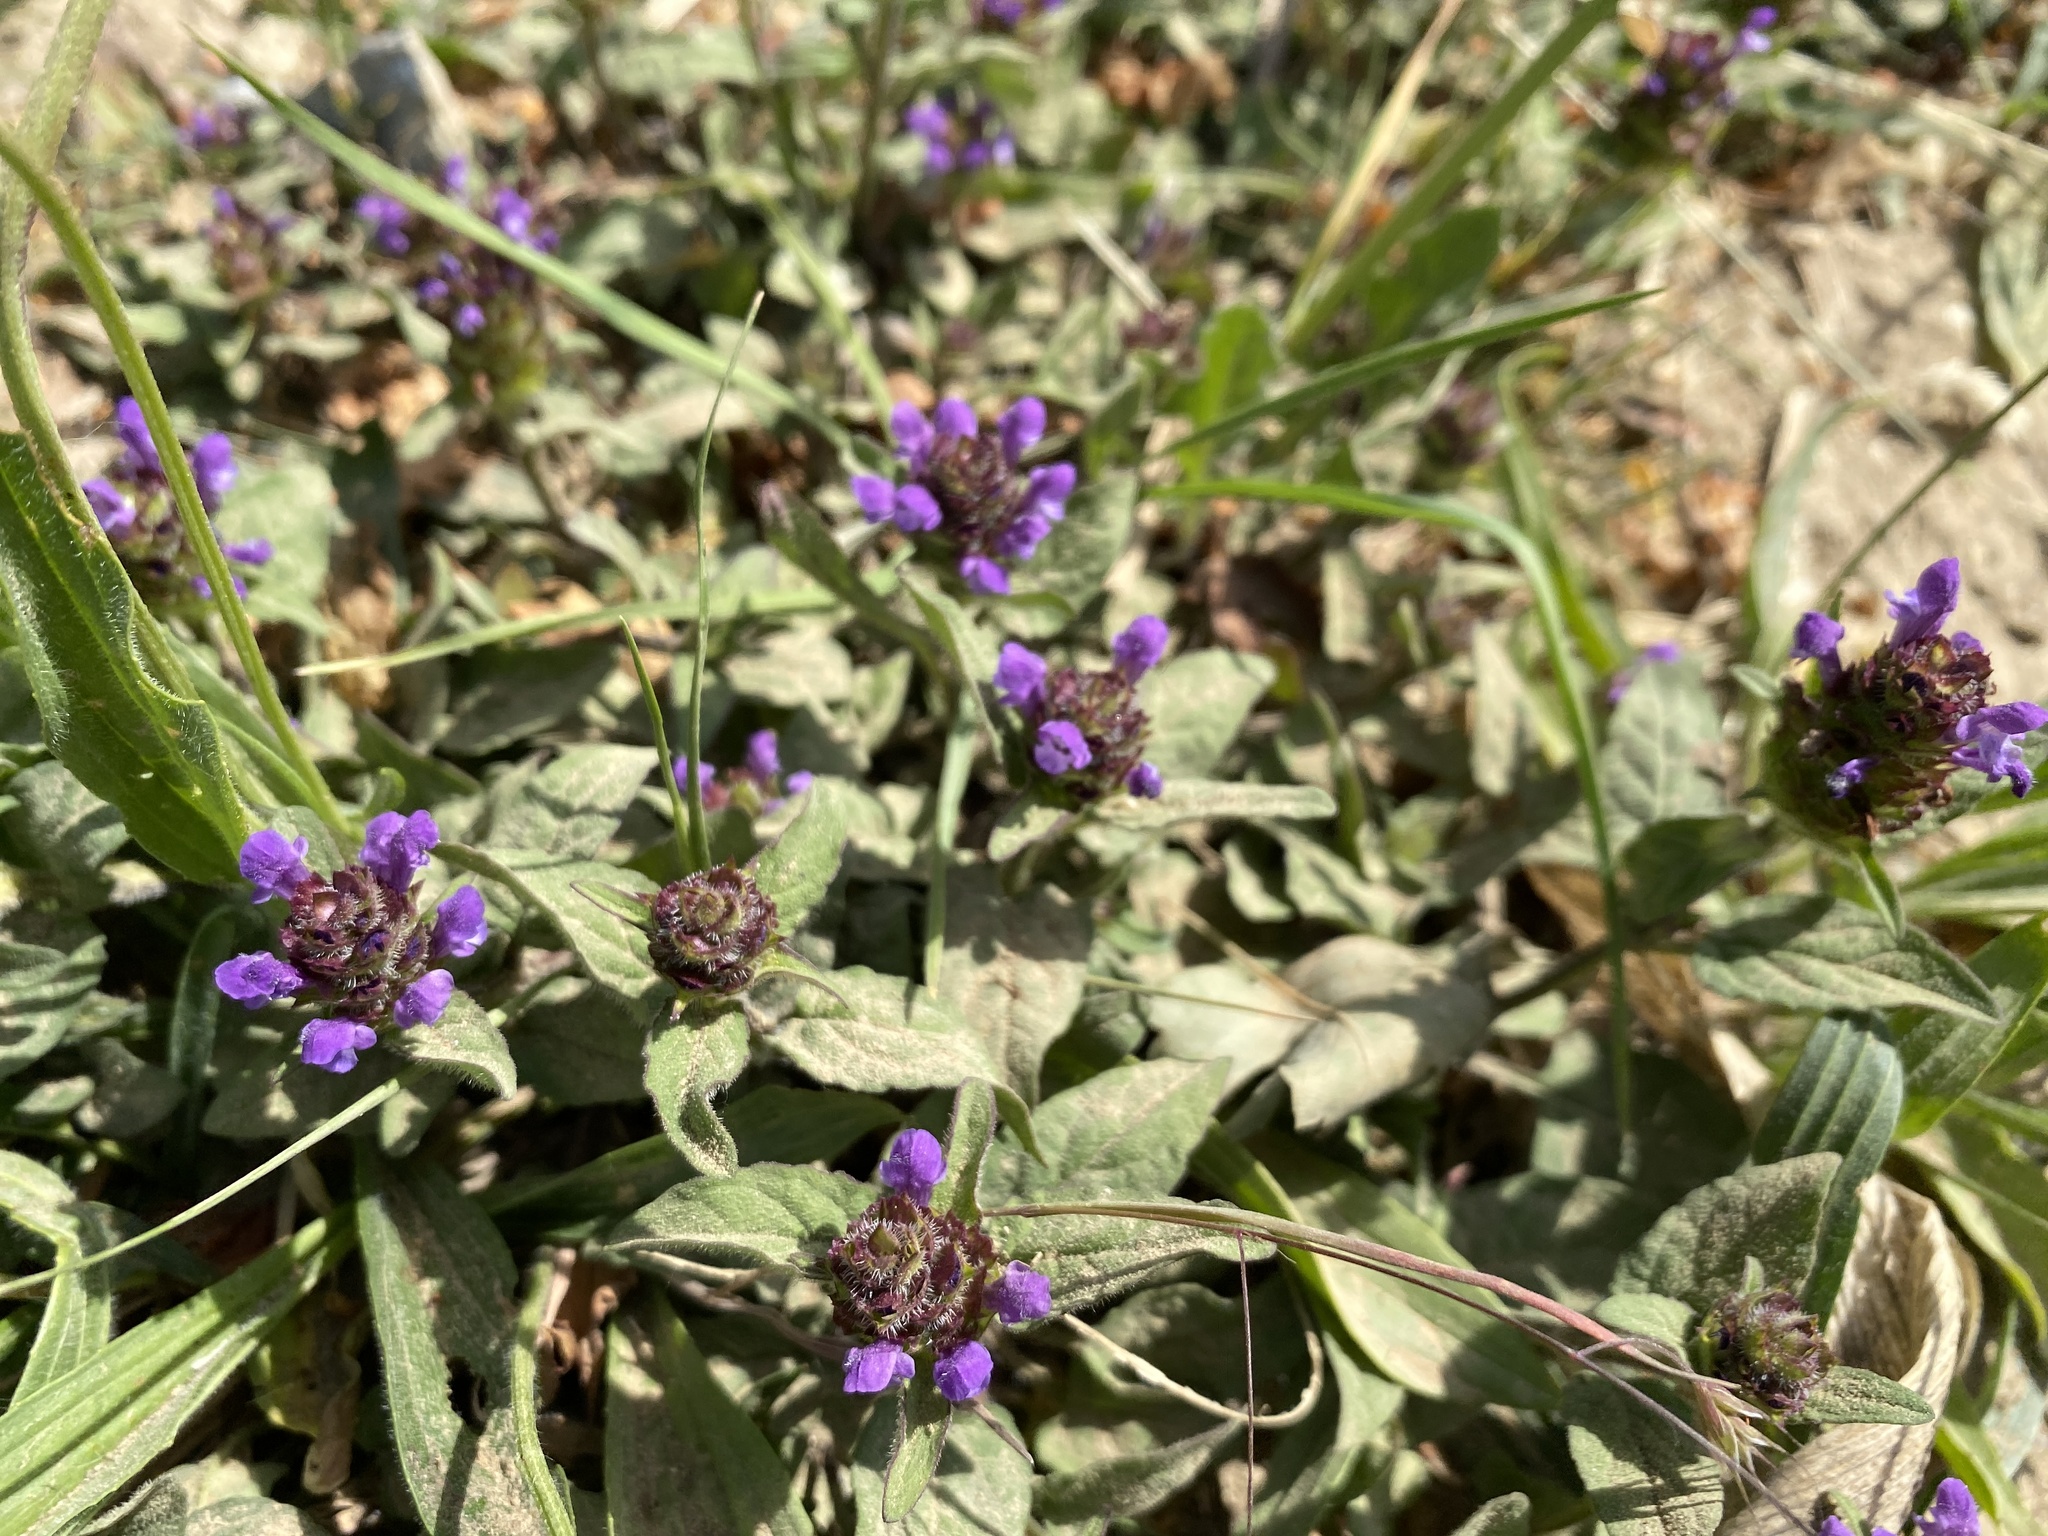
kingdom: Plantae
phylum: Tracheophyta
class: Magnoliopsida
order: Lamiales
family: Lamiaceae
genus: Prunella
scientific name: Prunella vulgaris
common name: Heal-all
